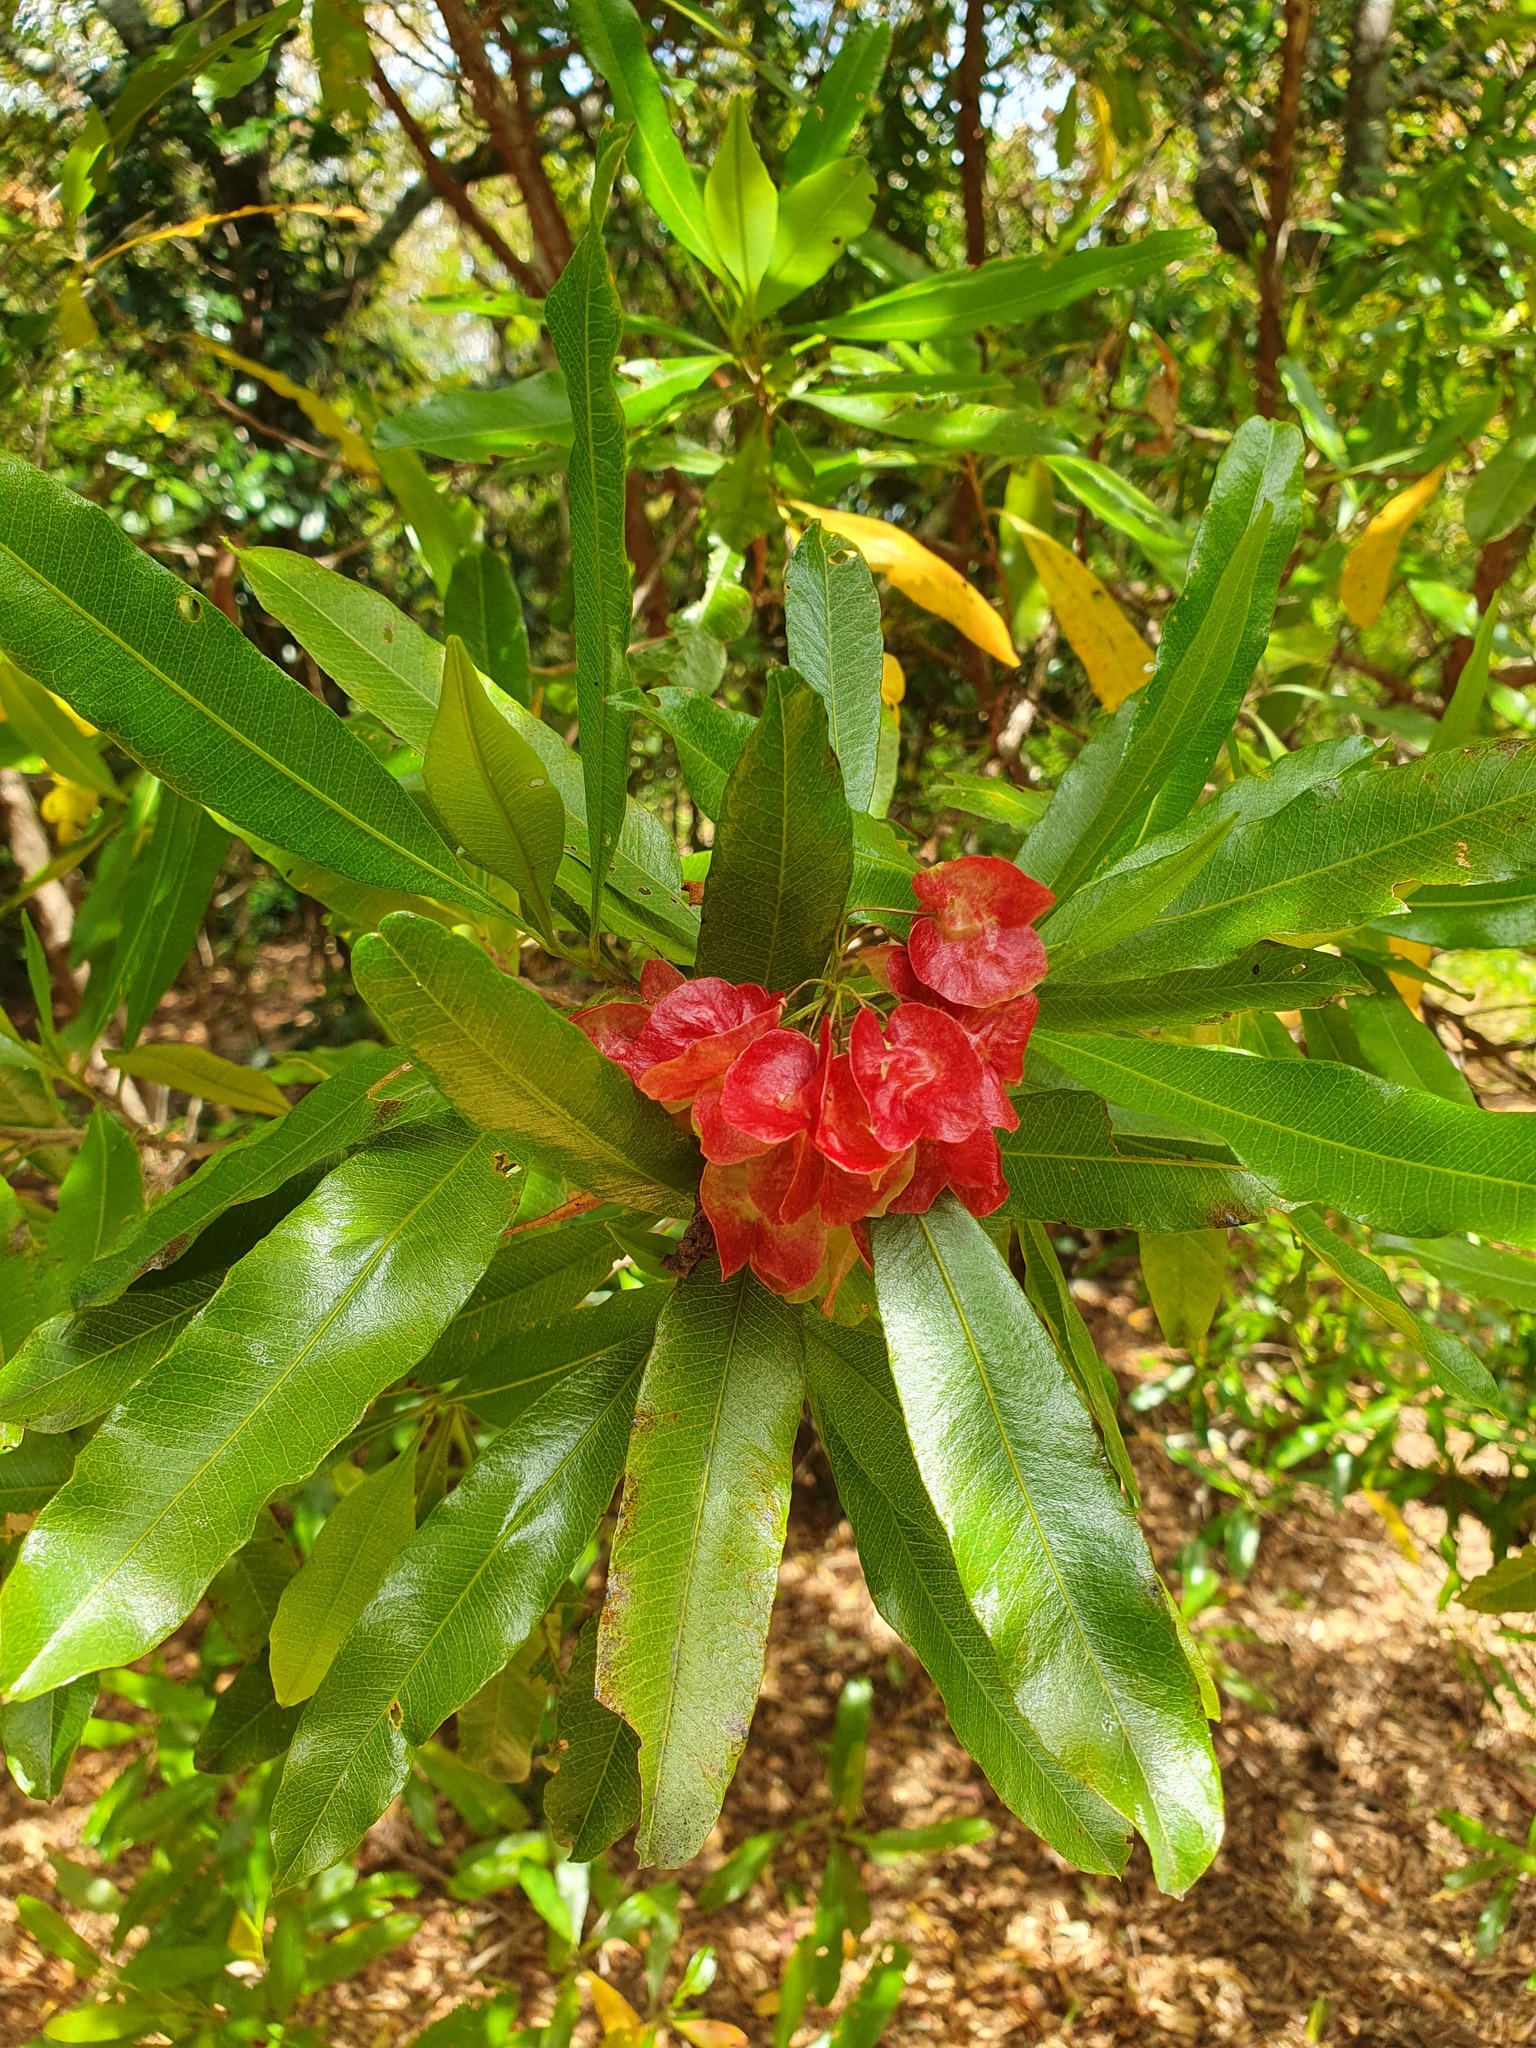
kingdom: Plantae
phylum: Tracheophyta
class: Magnoliopsida
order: Sapindales
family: Sapindaceae
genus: Dodonaea
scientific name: Dodonaea viscosa
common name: Hopbush
